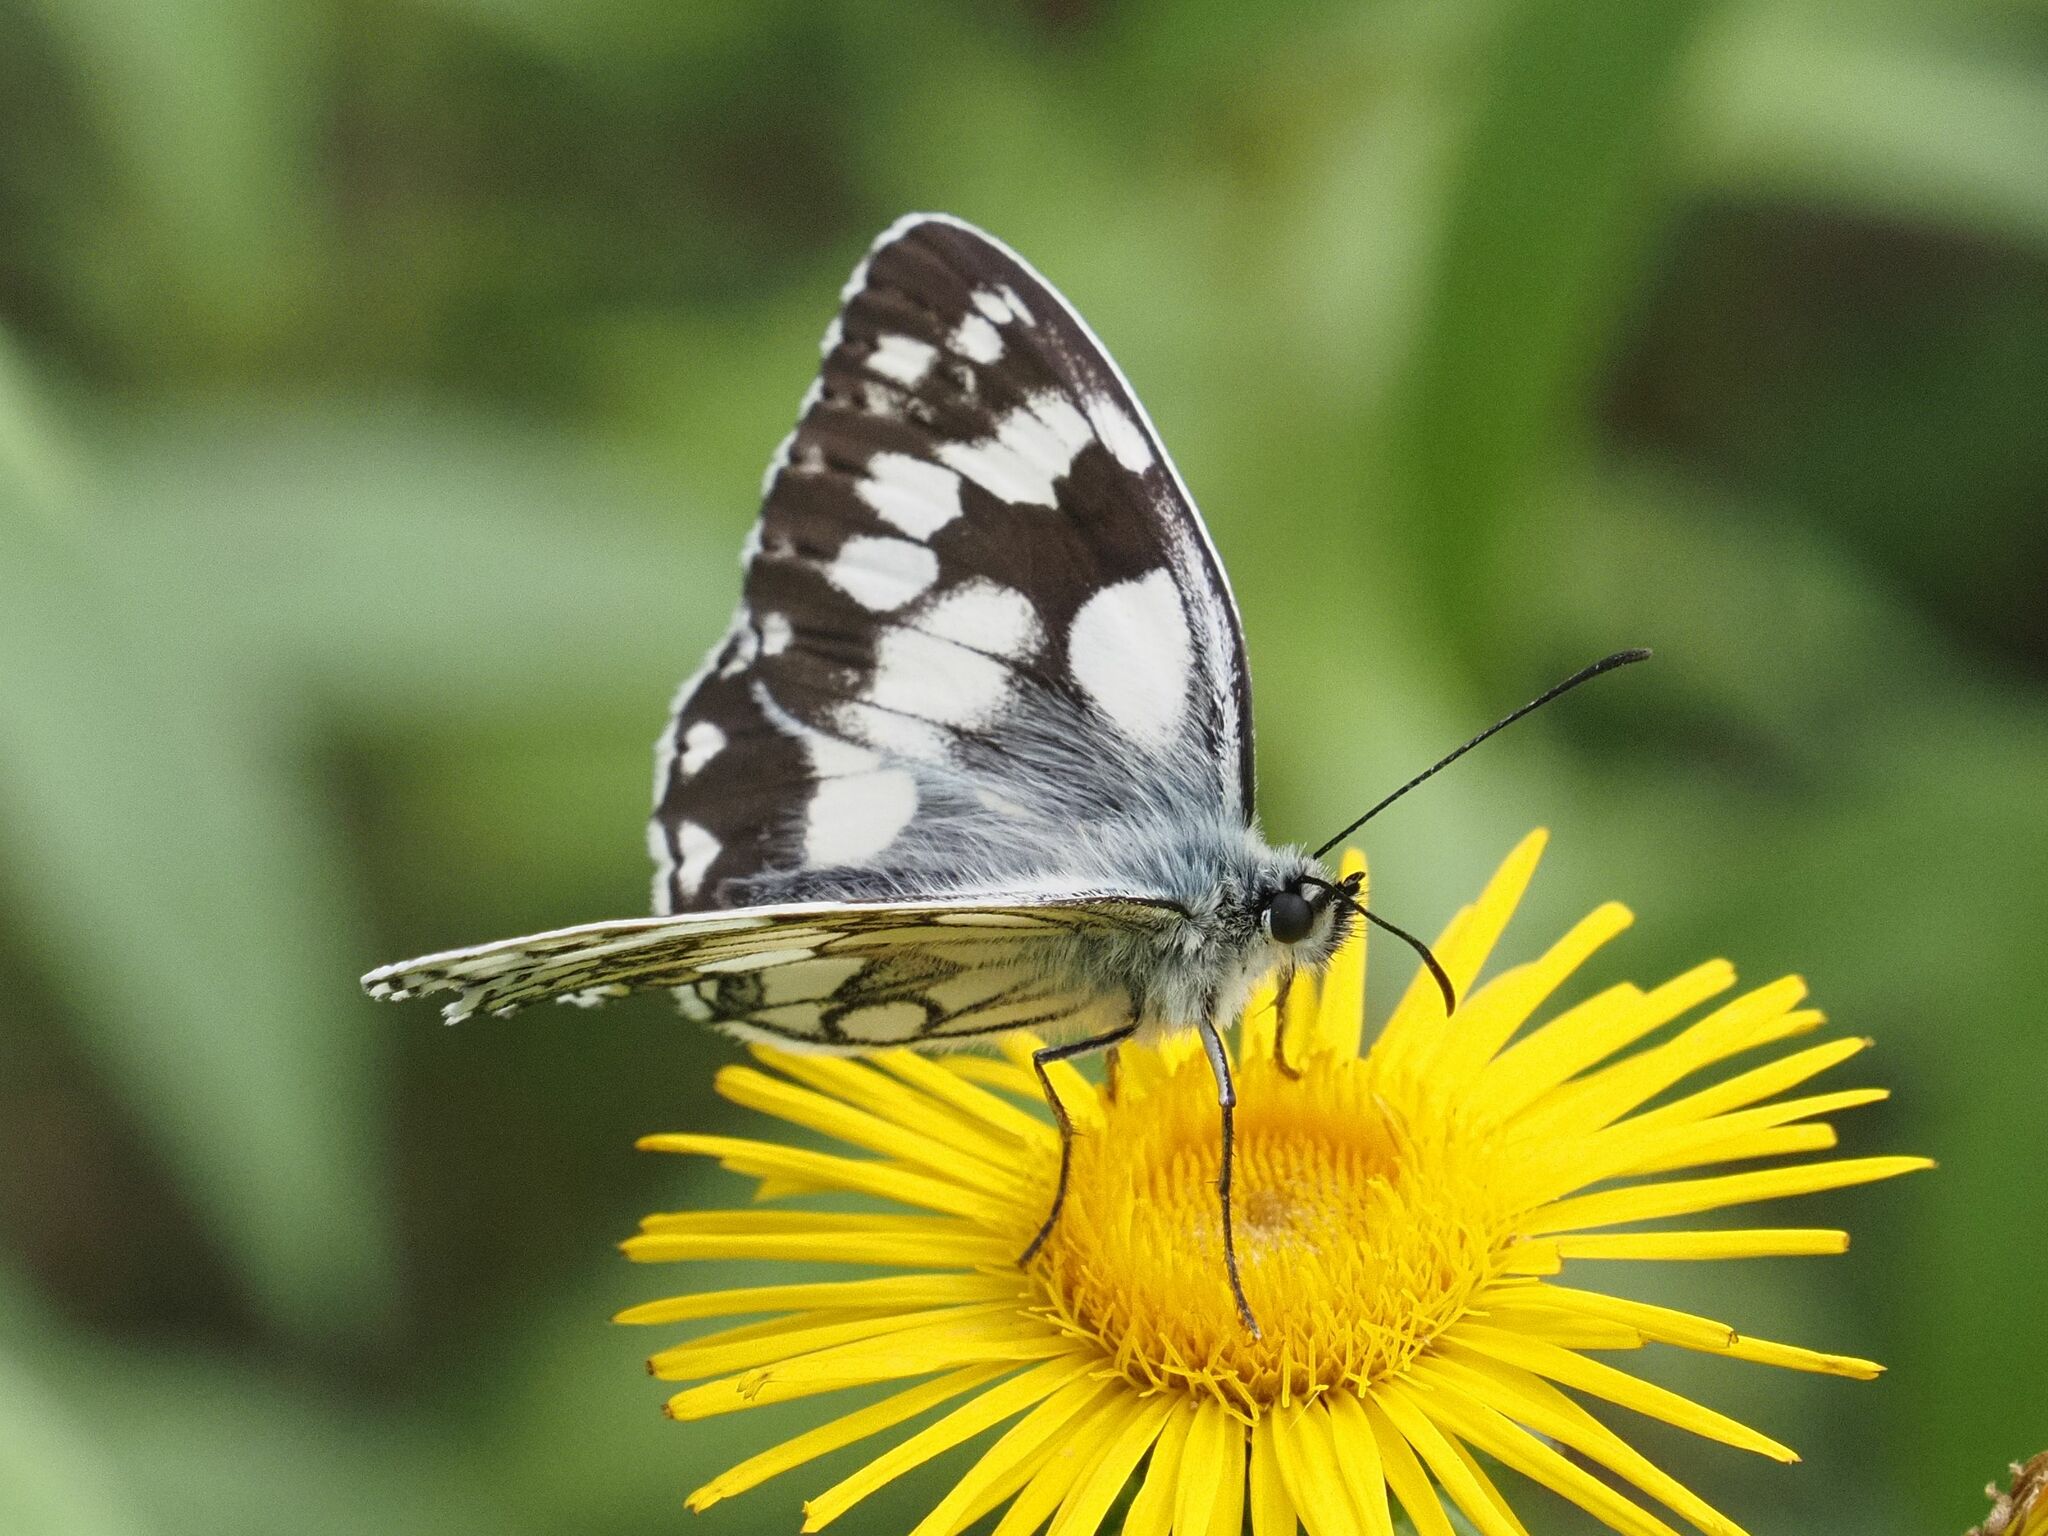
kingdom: Animalia
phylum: Arthropoda
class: Insecta
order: Lepidoptera
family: Nymphalidae
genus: Melanargia
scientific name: Melanargia galathea
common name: Marbled white
